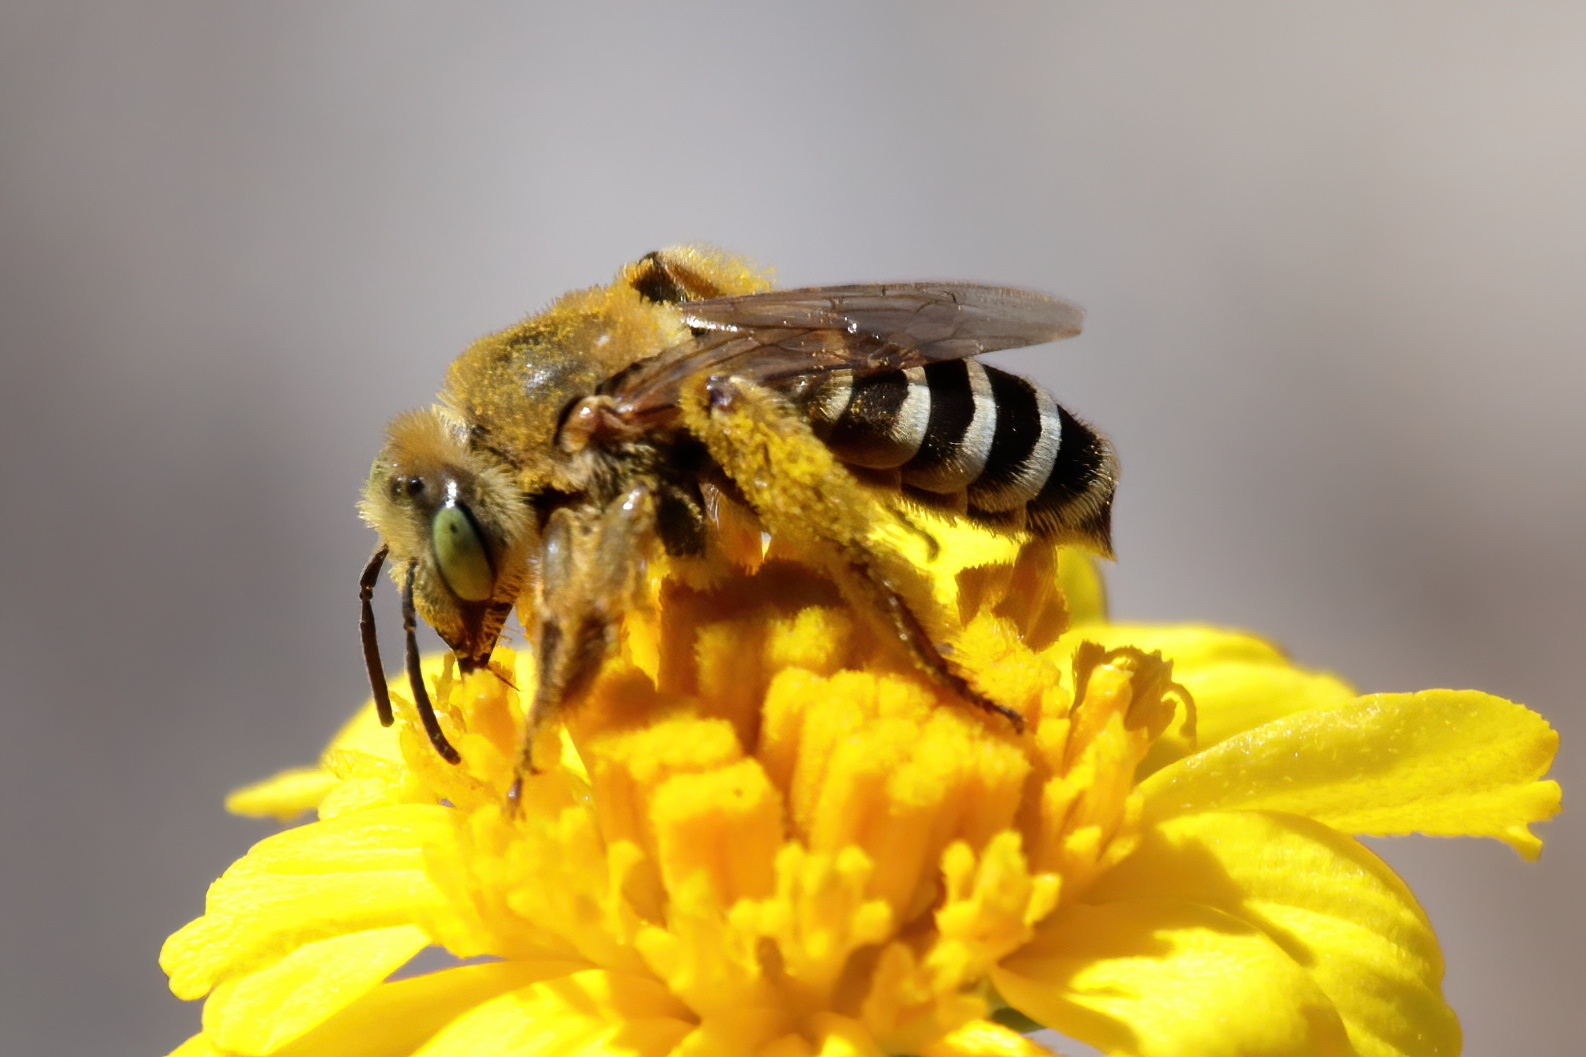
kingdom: Animalia
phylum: Arthropoda
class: Insecta
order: Hymenoptera
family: Melittidae
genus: Hesperapis
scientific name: Hesperapis oraria
